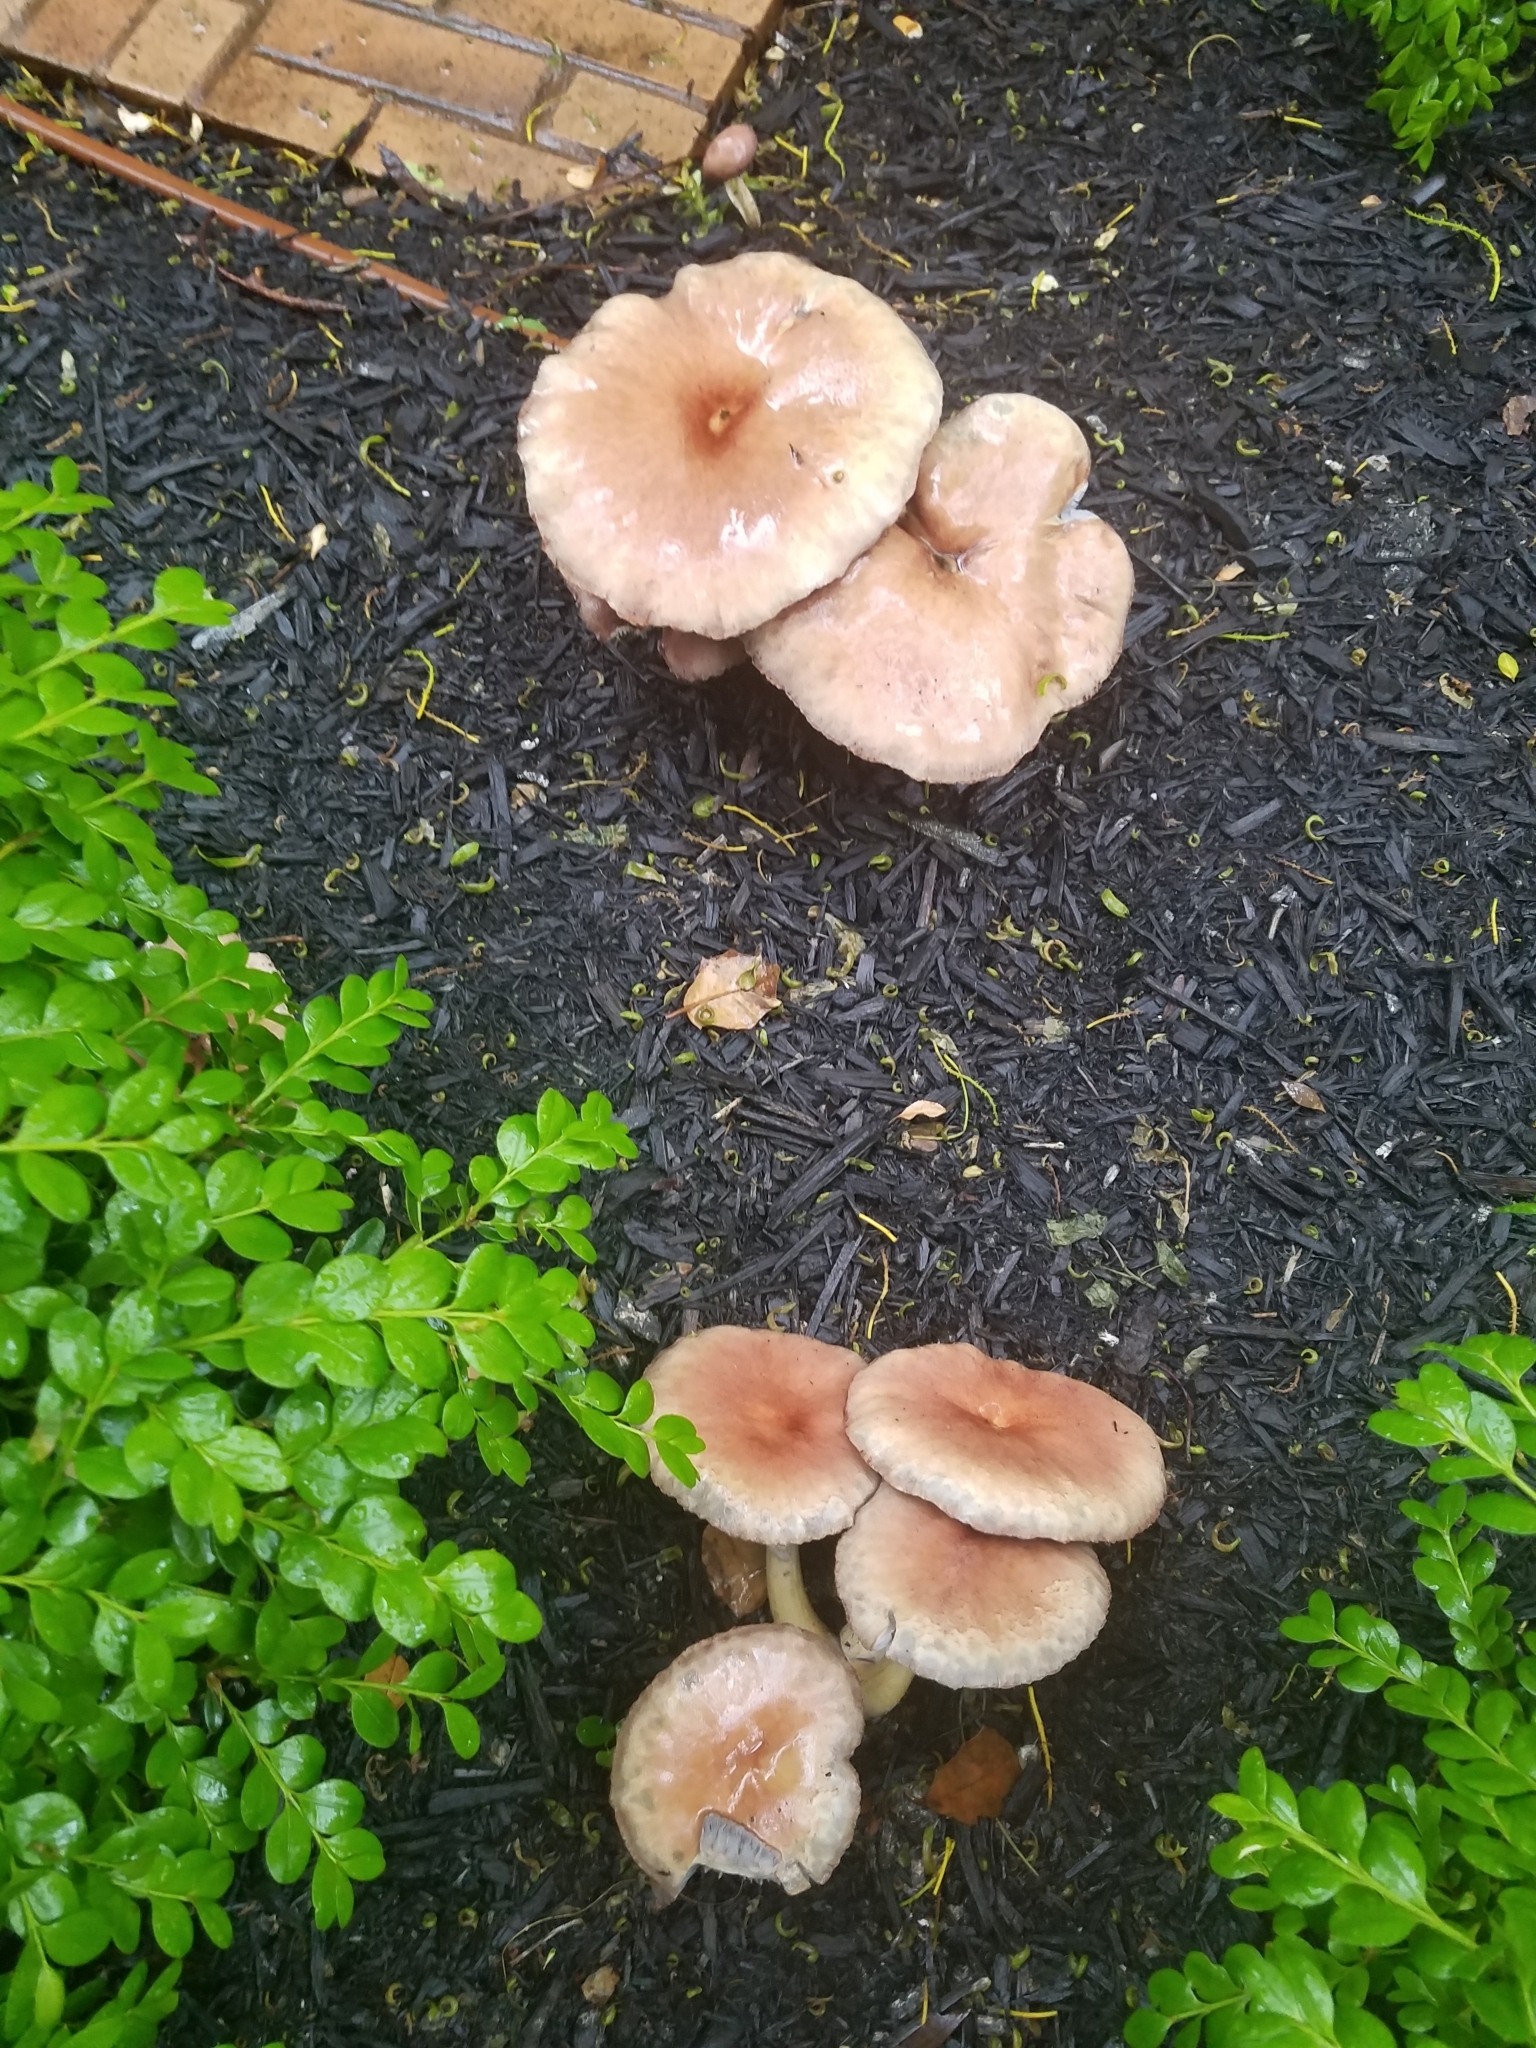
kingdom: Fungi
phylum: Basidiomycota
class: Agaricomycetes
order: Agaricales
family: Pluteaceae
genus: Pluteus
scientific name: Pluteus cervinus
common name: Deer shield
